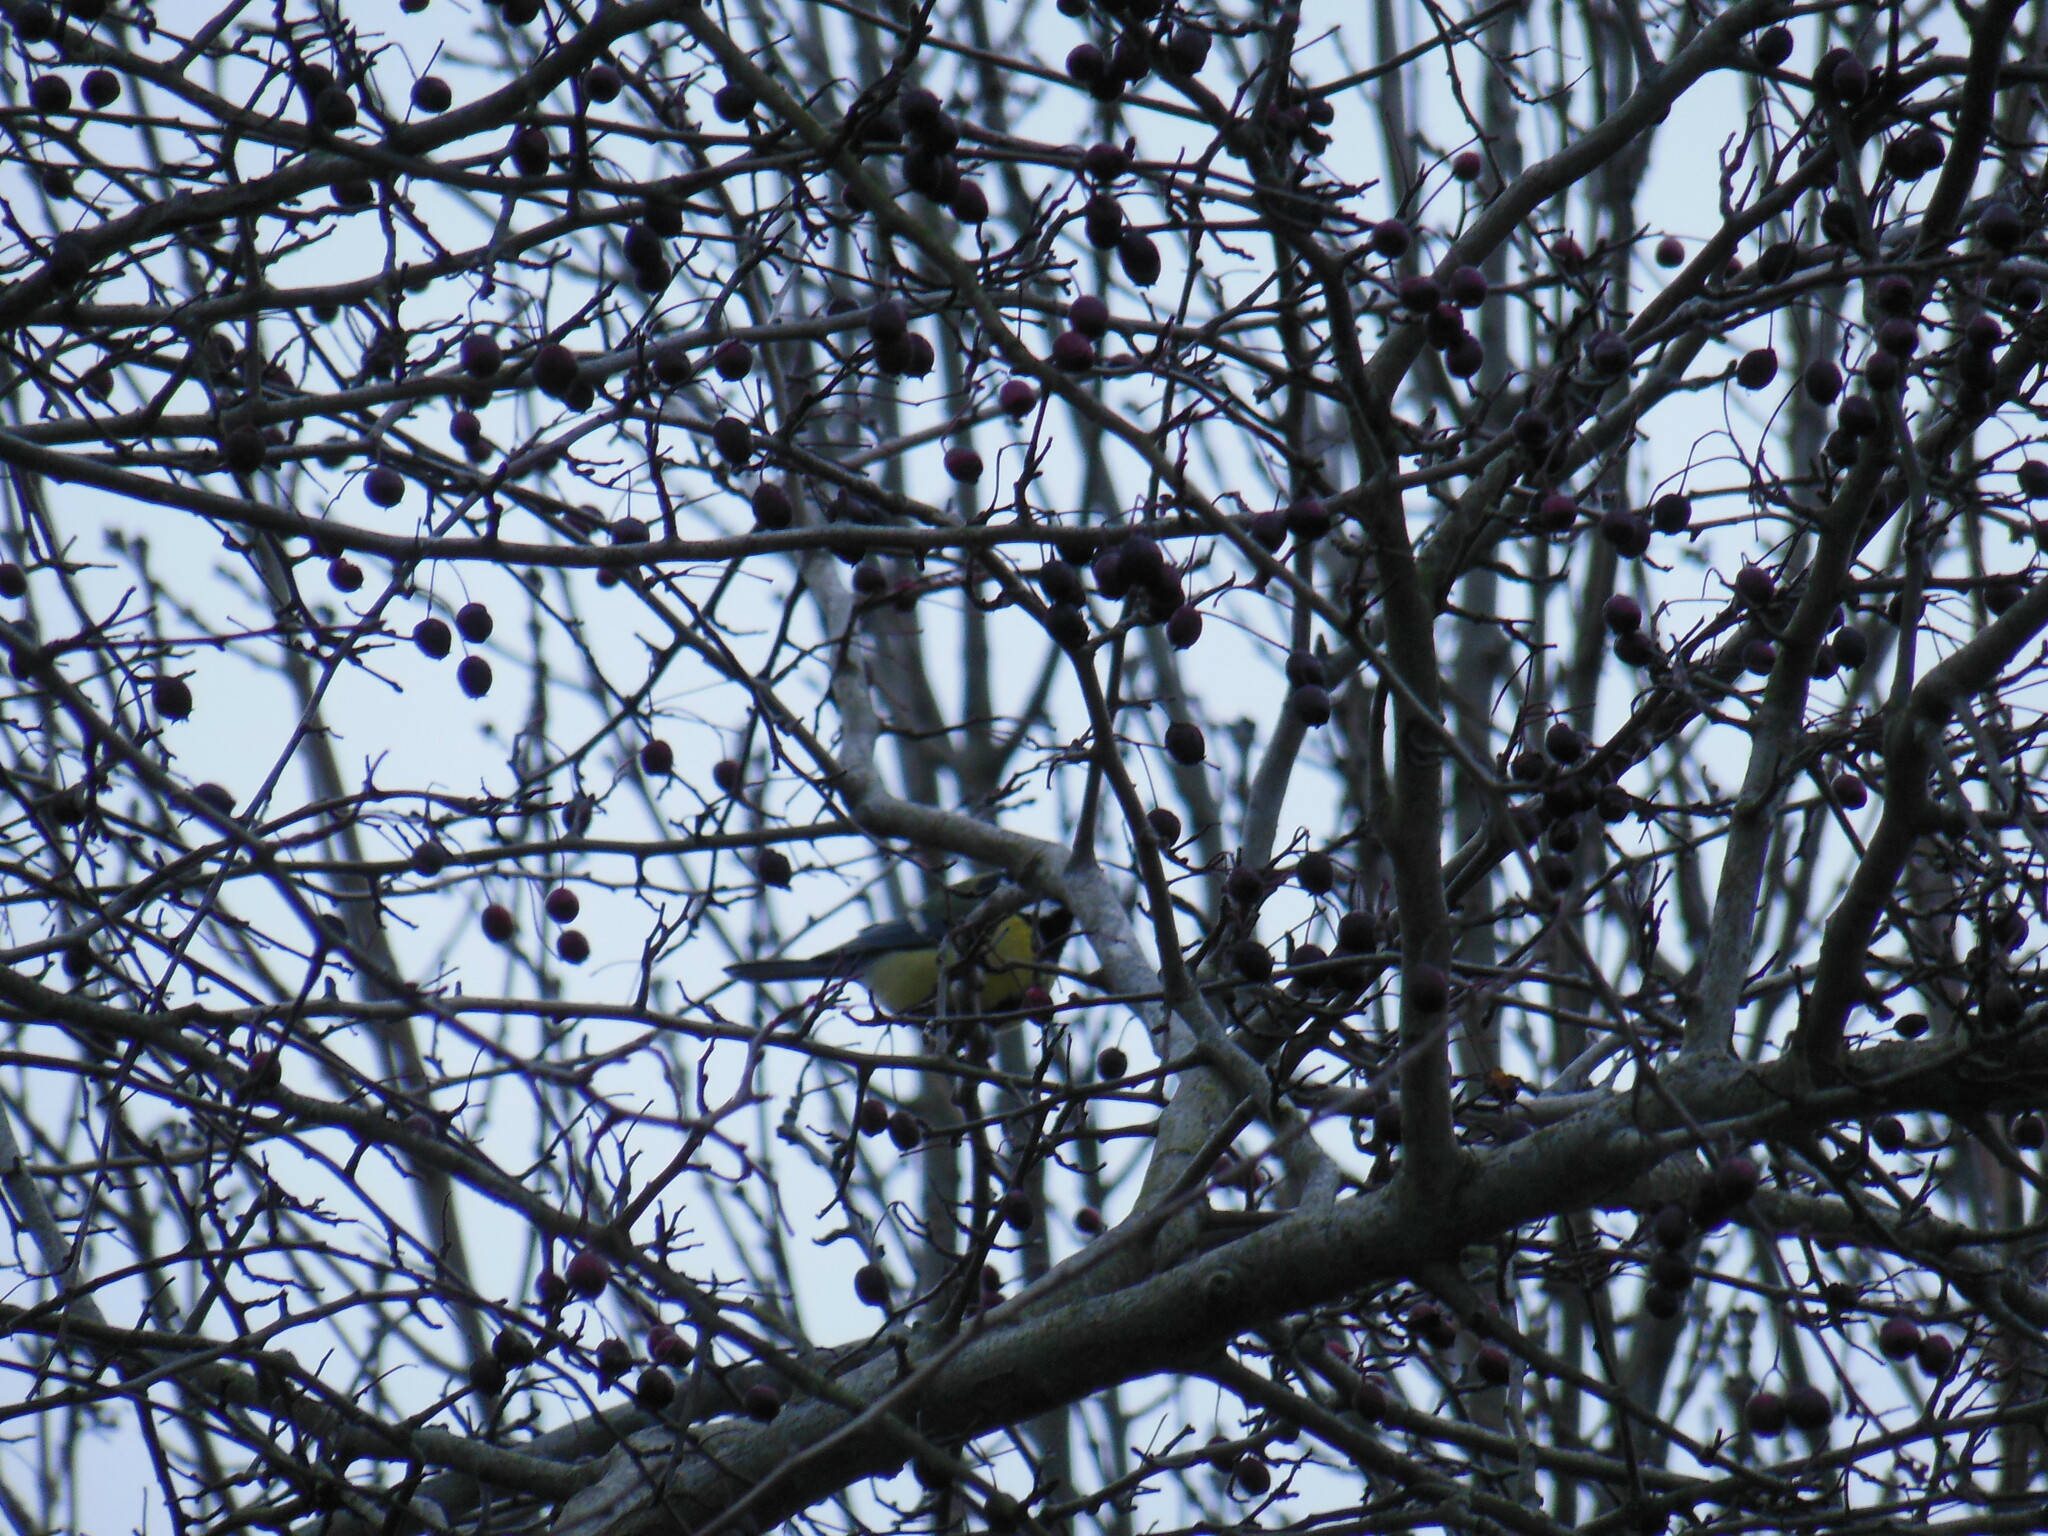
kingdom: Animalia
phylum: Chordata
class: Aves
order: Passeriformes
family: Paridae
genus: Parus
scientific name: Parus major
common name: Great tit
